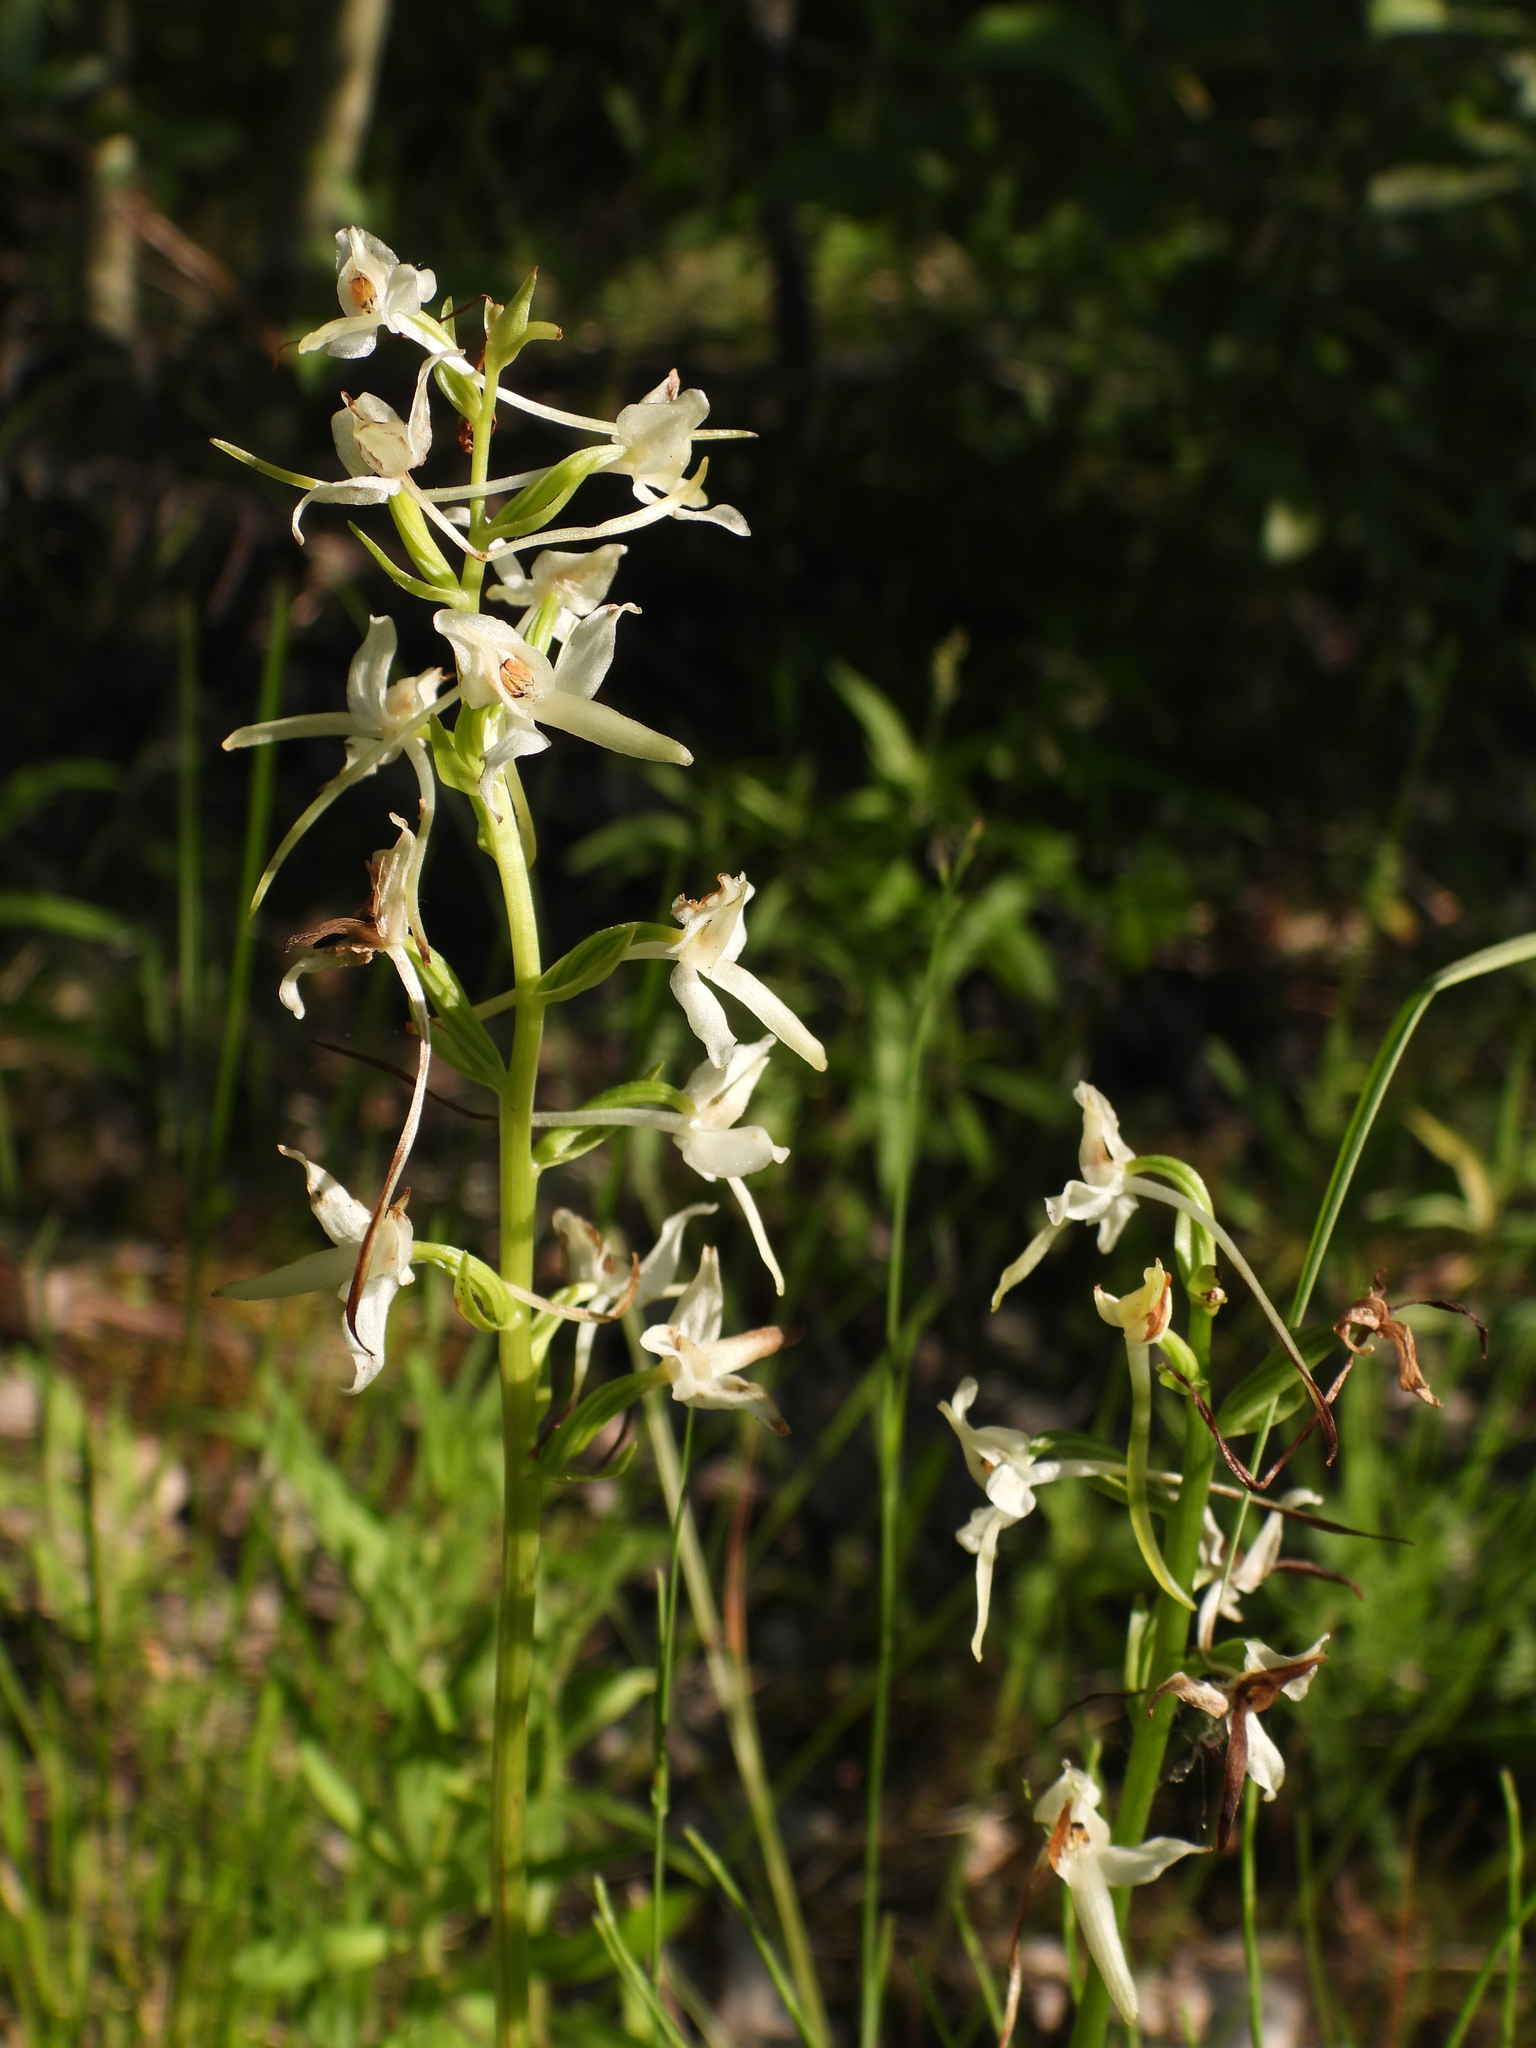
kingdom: Plantae
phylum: Tracheophyta
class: Liliopsida
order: Asparagales
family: Orchidaceae
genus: Platanthera
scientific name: Platanthera bifolia
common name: Lesser butterfly-orchid
